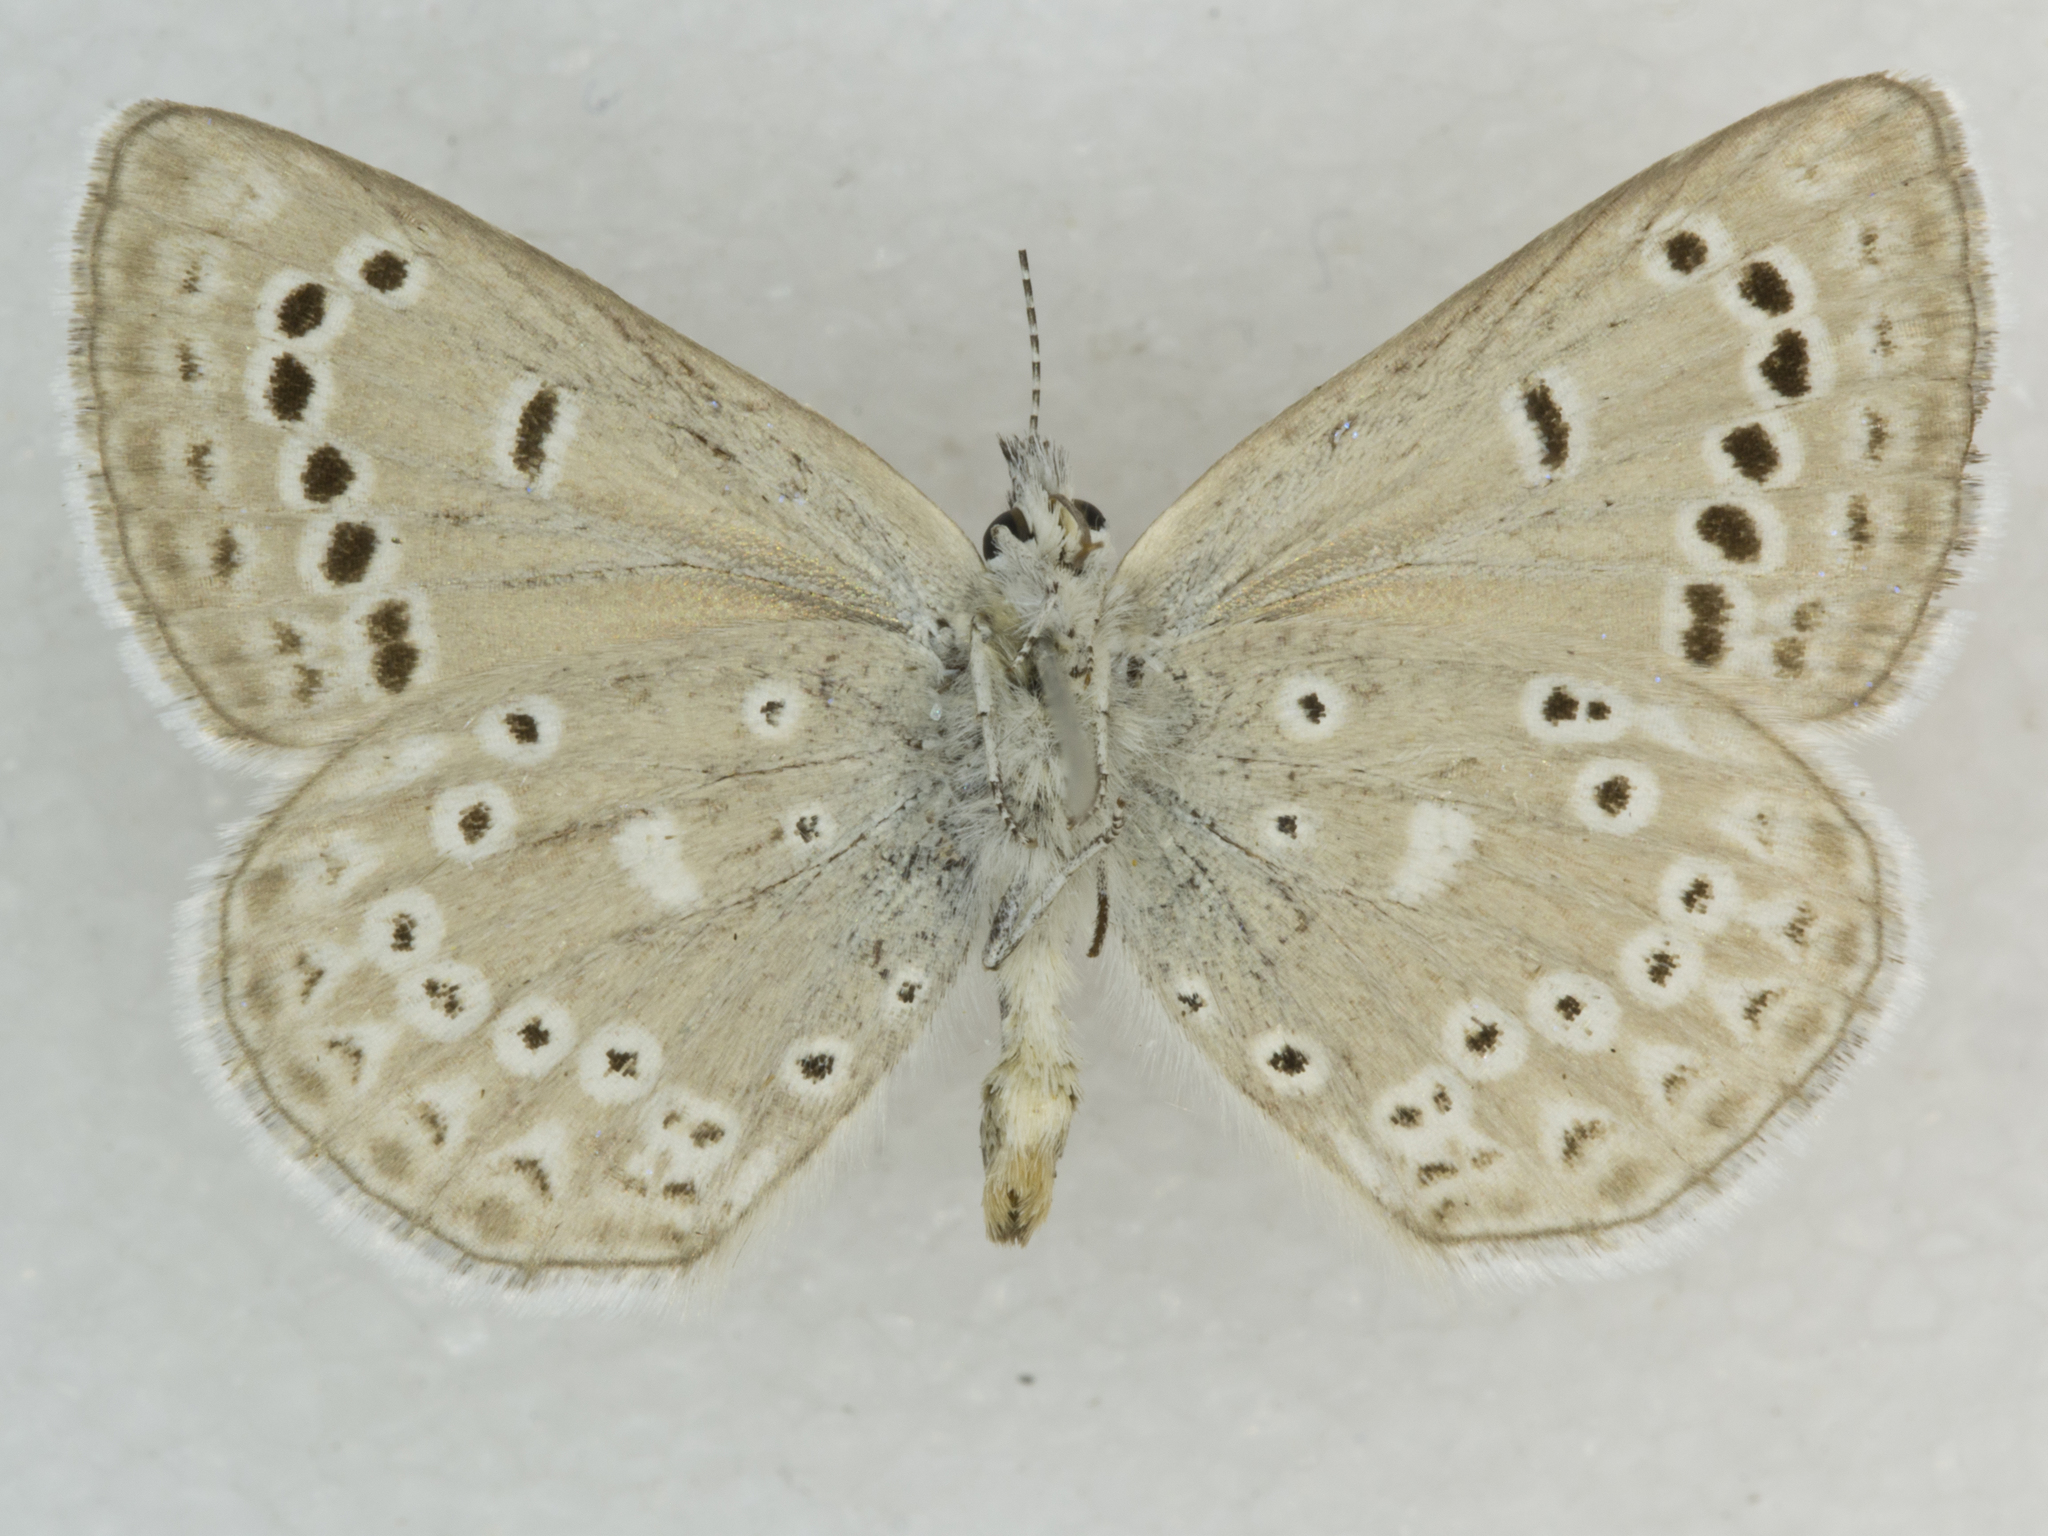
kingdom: Animalia
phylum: Arthropoda
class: Insecta
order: Lepidoptera
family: Lycaenidae
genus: Icaricia
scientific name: Icaricia icarioides
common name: Boisduval's blue
